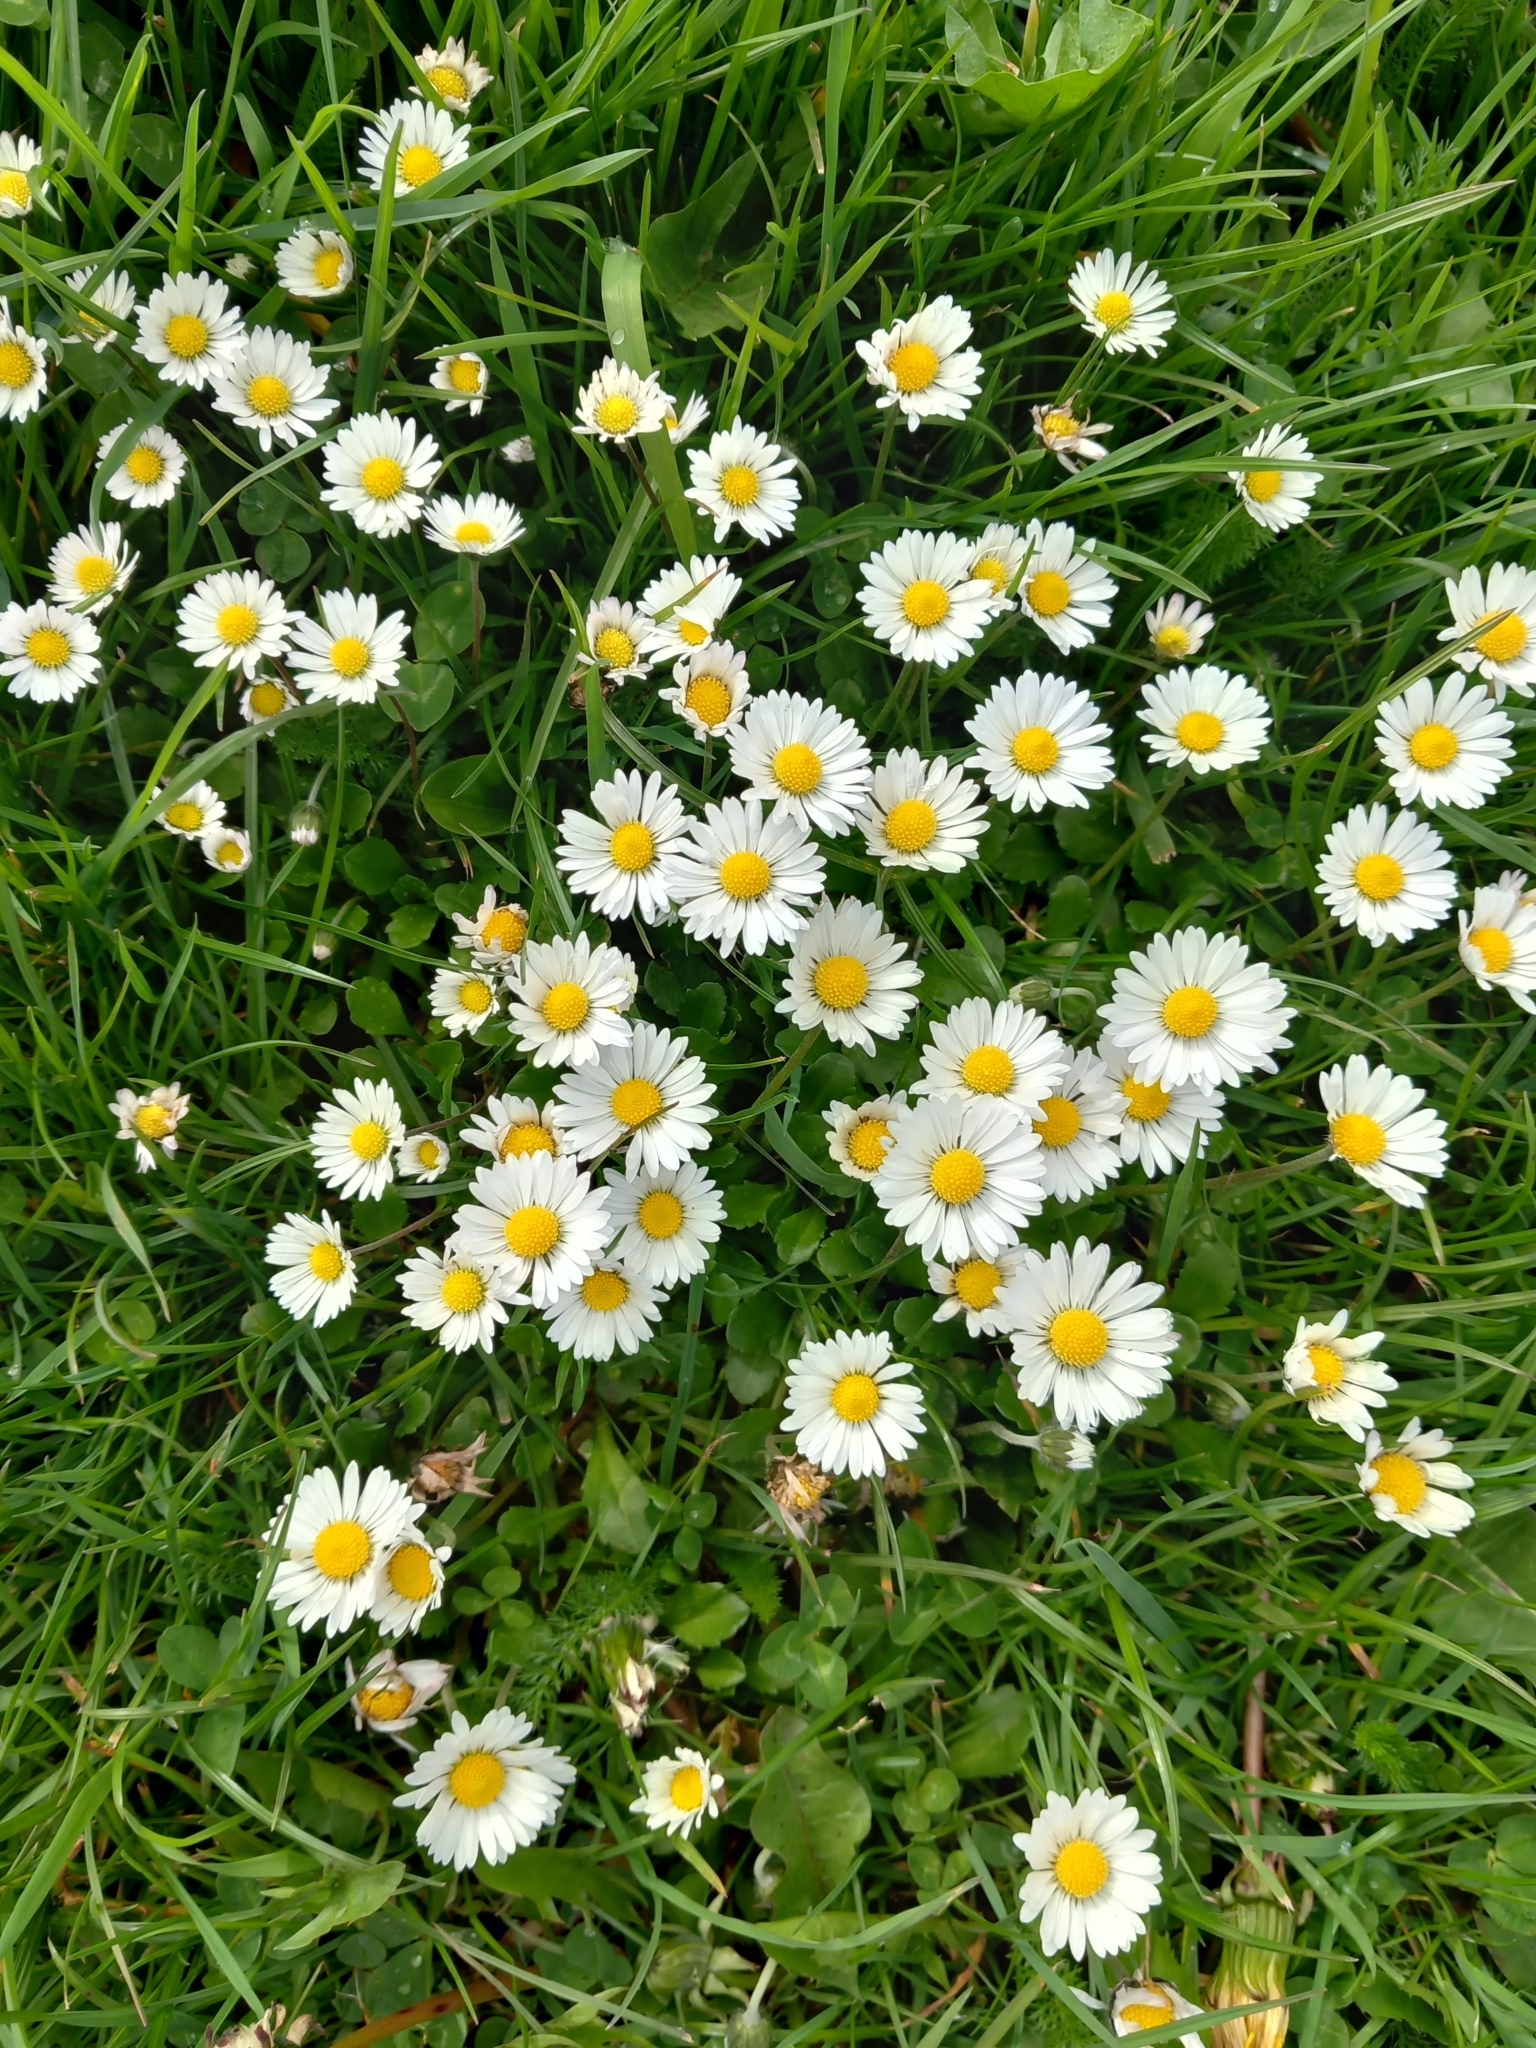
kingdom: Plantae
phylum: Tracheophyta
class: Magnoliopsida
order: Asterales
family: Asteraceae
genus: Bellis
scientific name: Bellis perennis
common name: Lawndaisy
